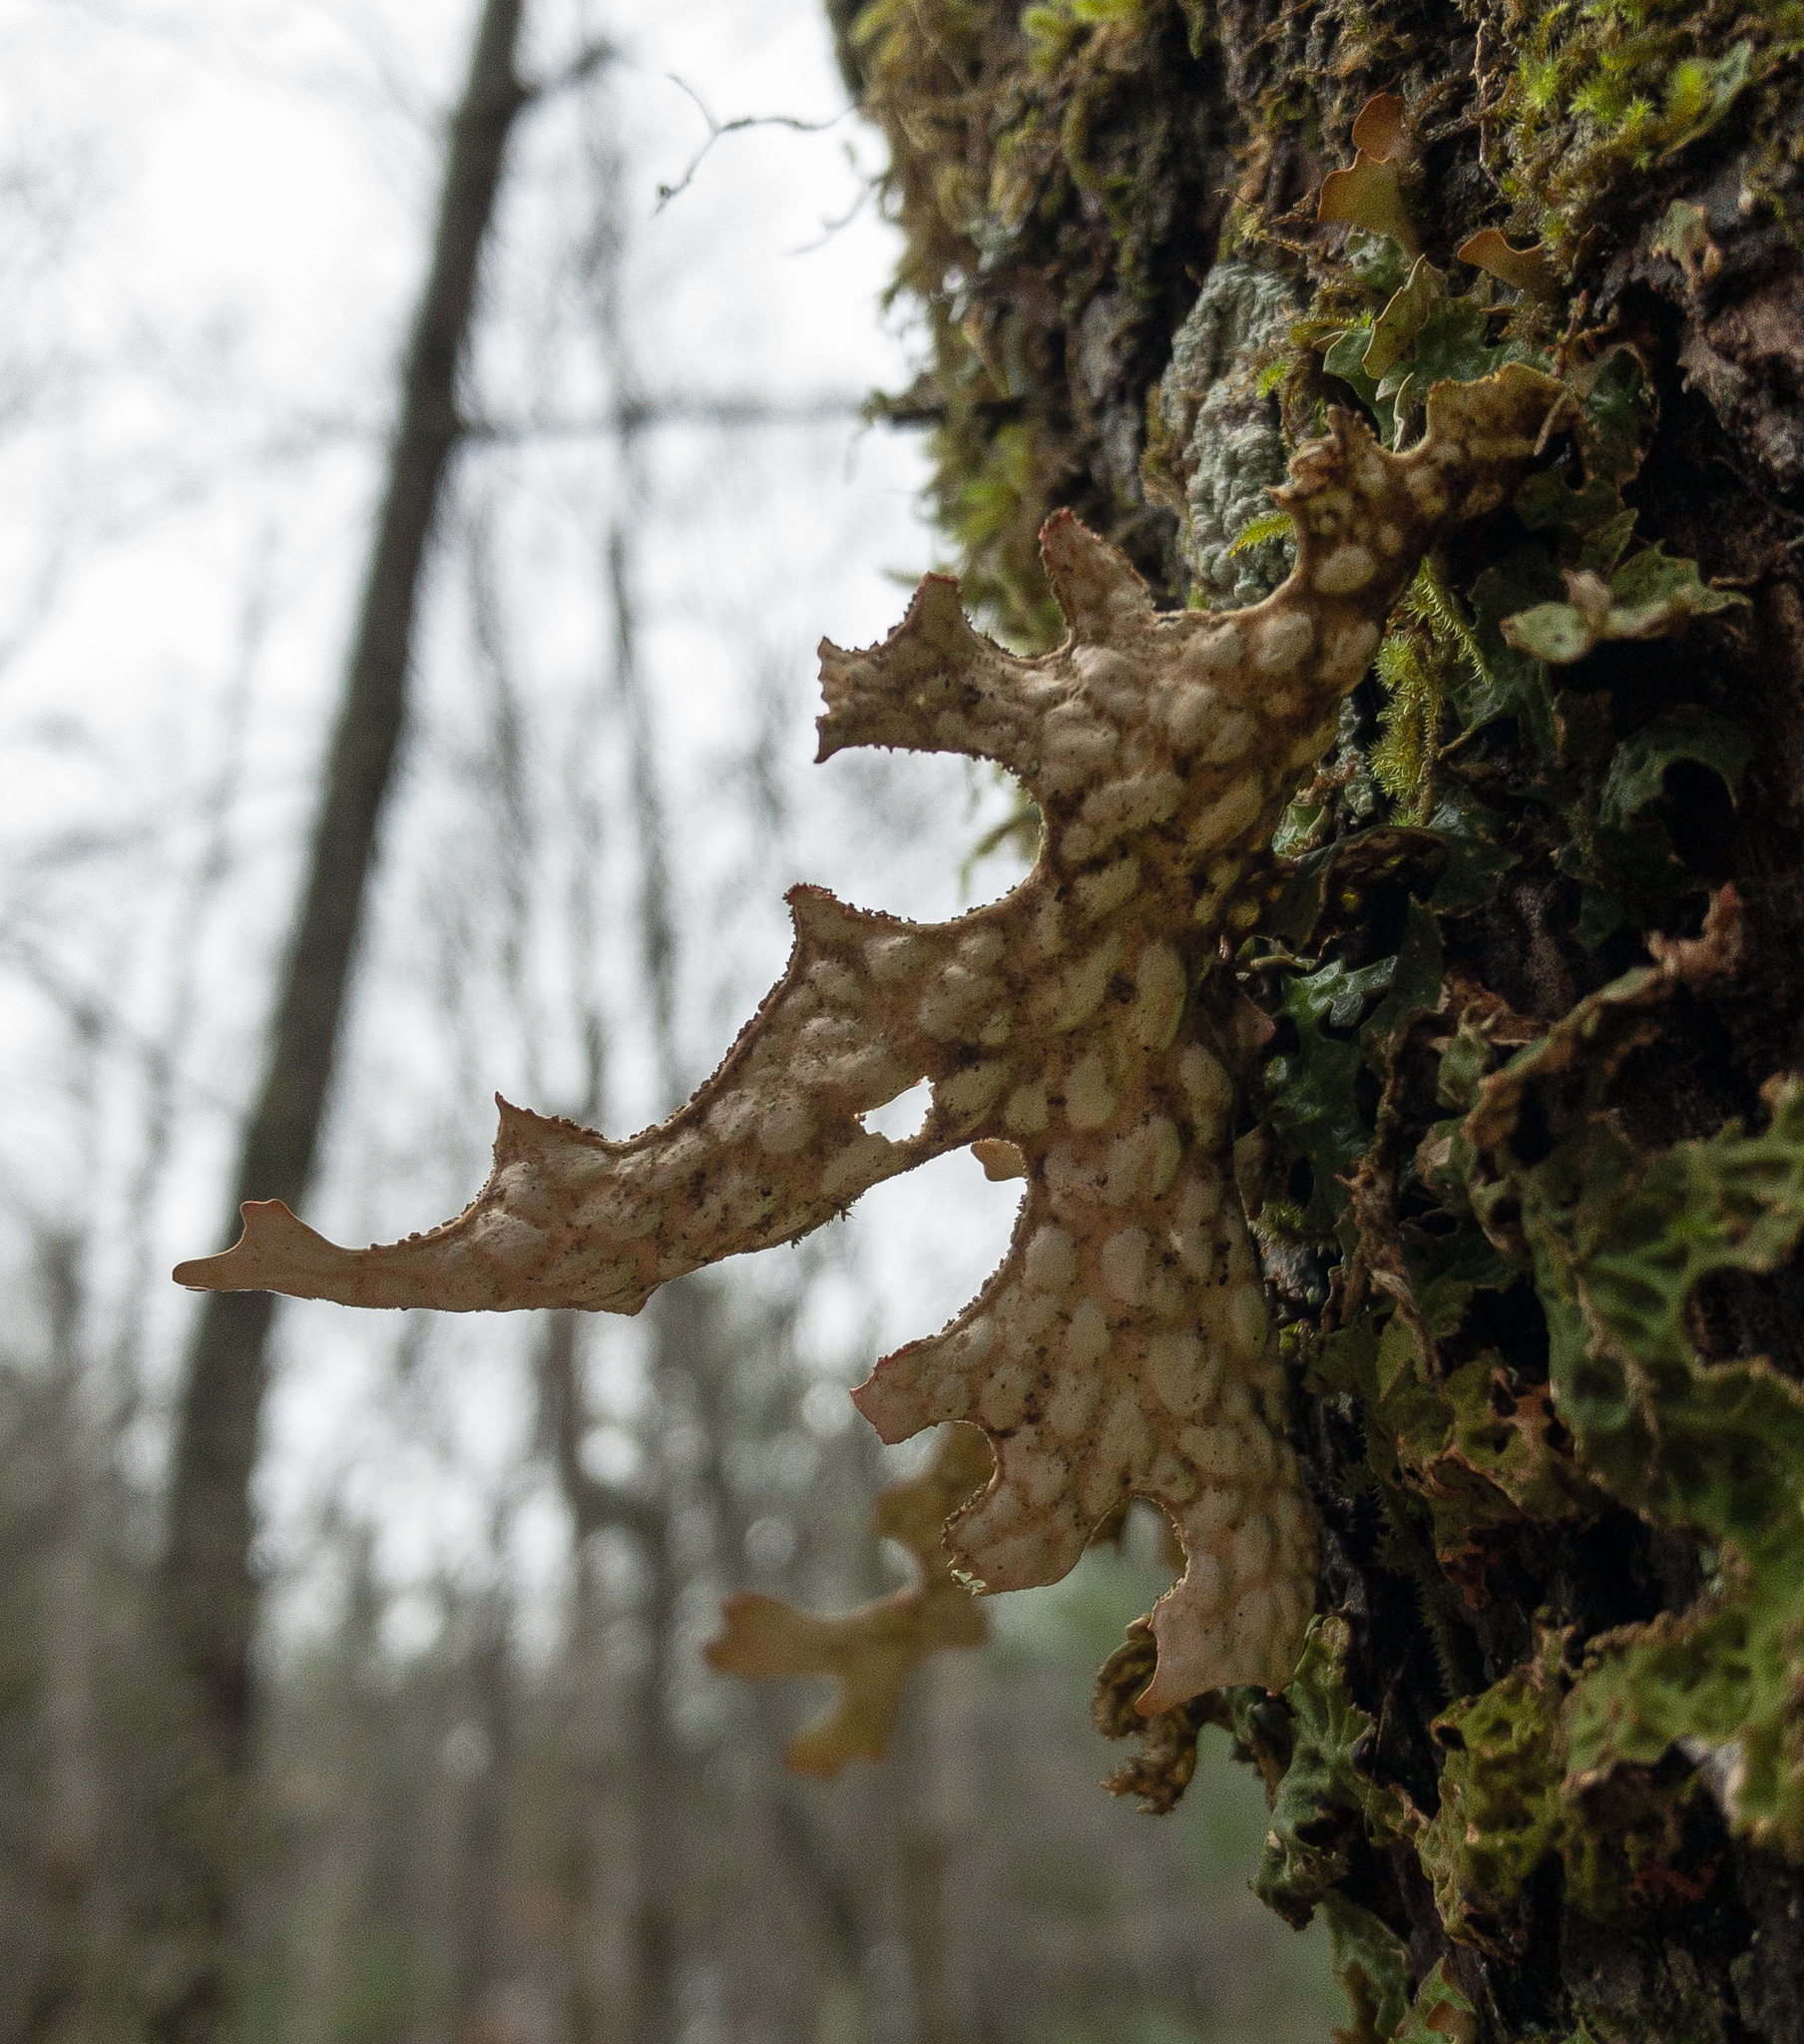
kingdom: Fungi
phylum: Ascomycota
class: Lecanoromycetes
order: Peltigerales
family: Lobariaceae
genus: Lobaria
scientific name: Lobaria pulmonaria
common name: Lungwort
